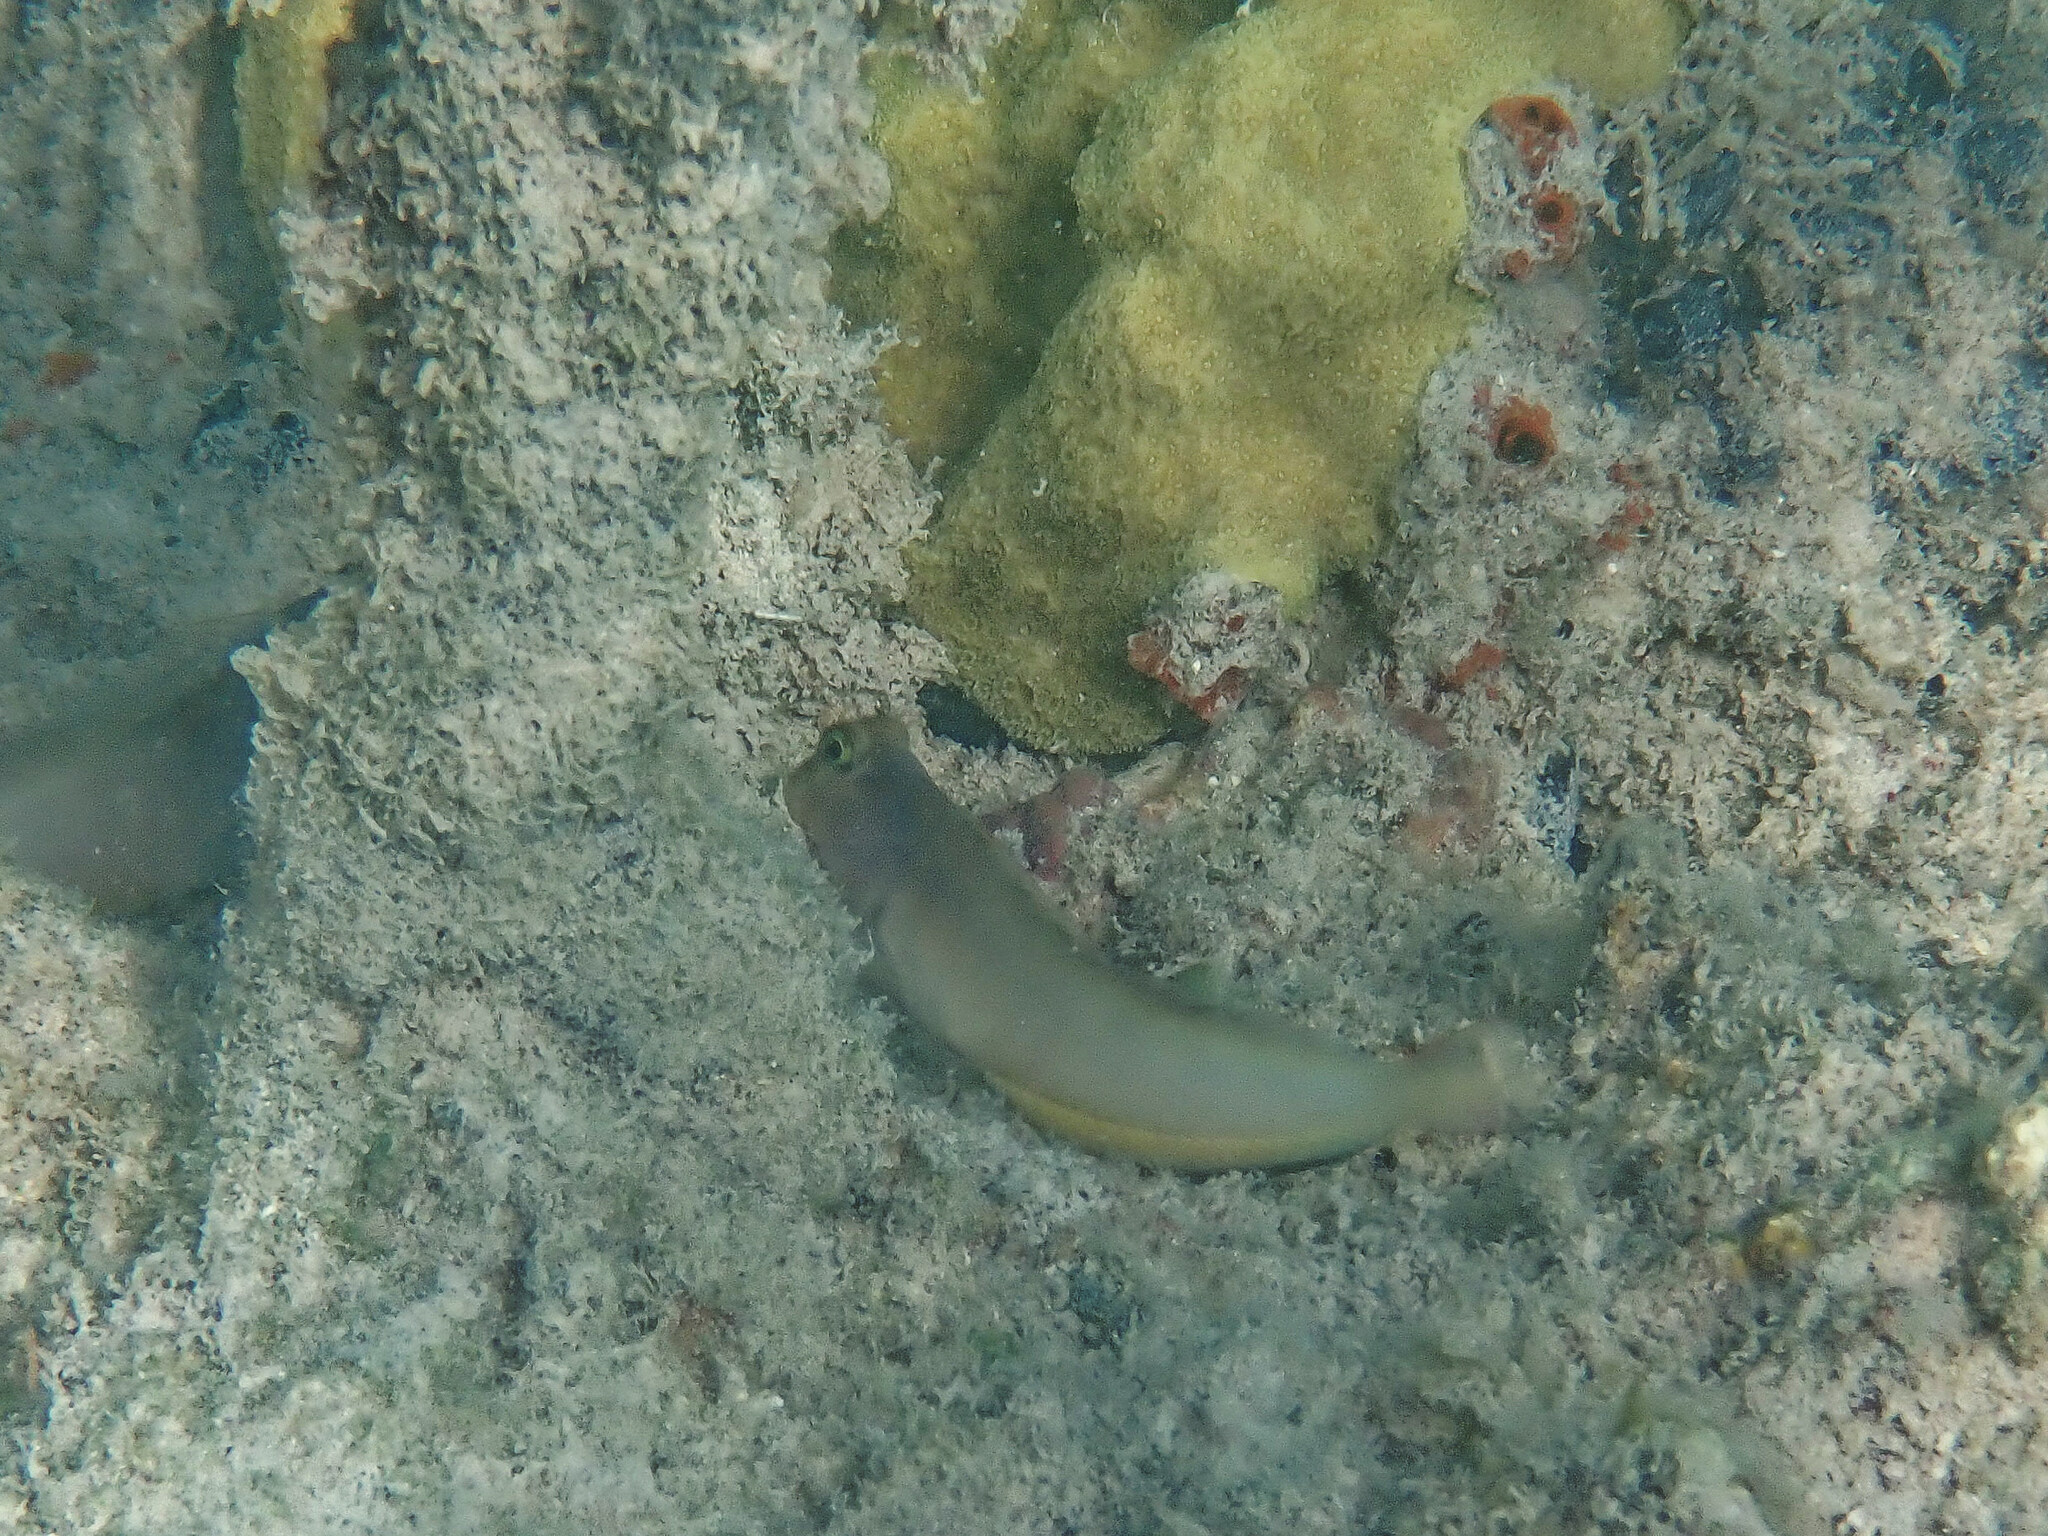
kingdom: Animalia
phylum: Chordata
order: Perciformes
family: Blenniidae
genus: Ophioblennius
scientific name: Ophioblennius macclurei
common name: Redlip blenny
